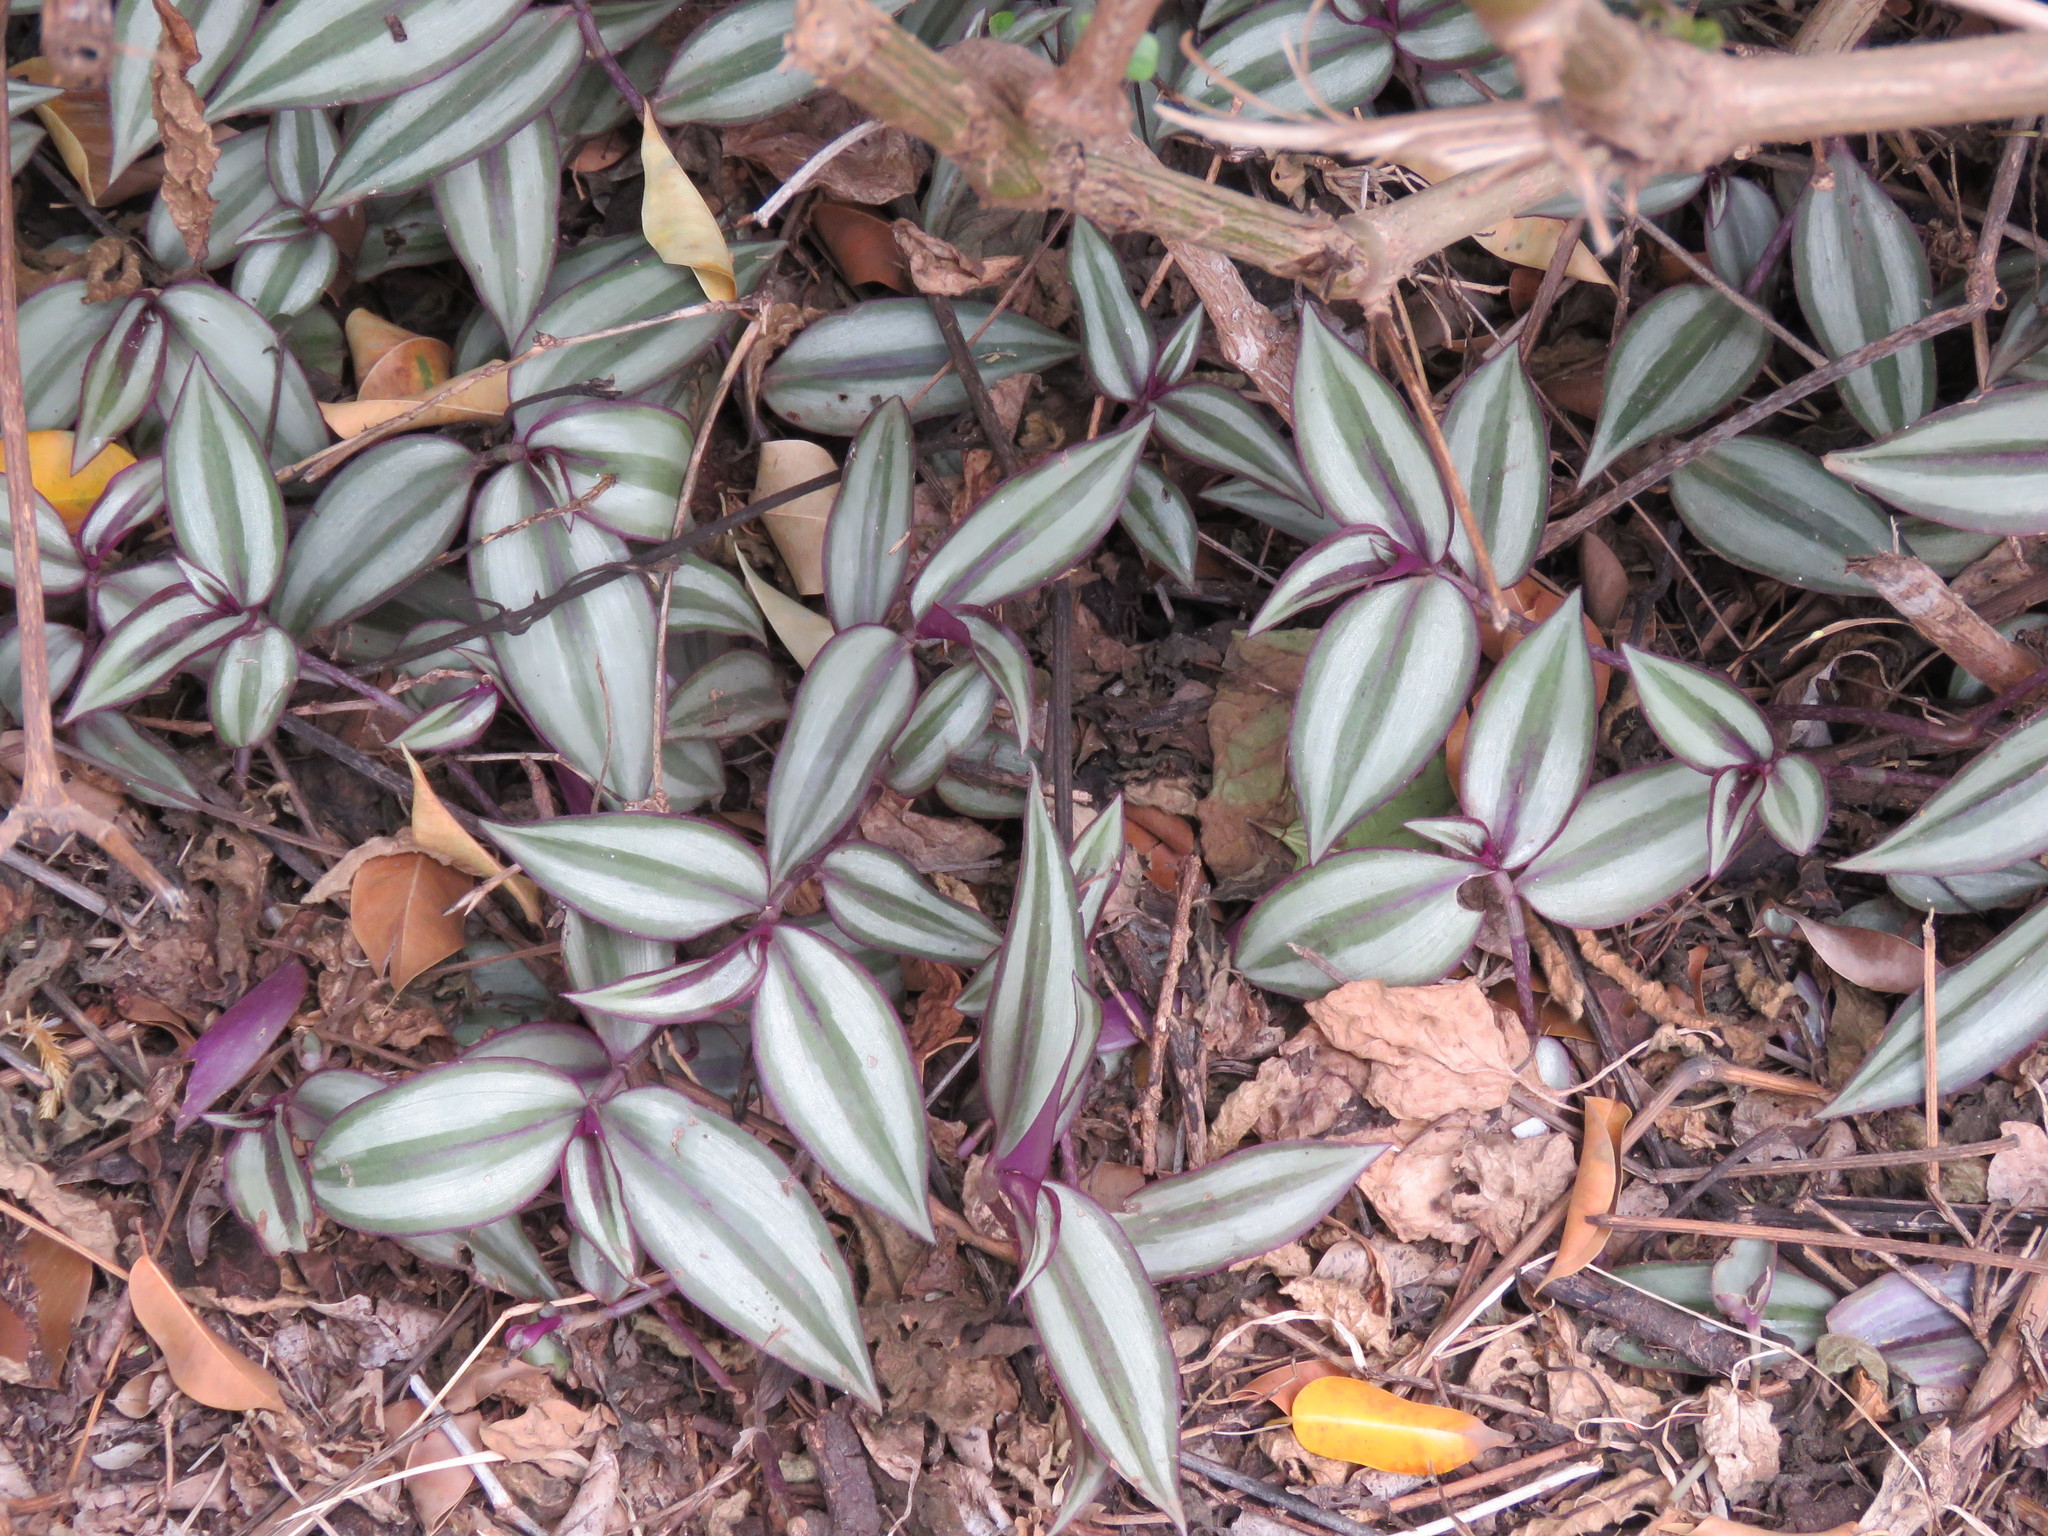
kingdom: Plantae
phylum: Tracheophyta
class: Liliopsida
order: Commelinales
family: Commelinaceae
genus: Tradescantia
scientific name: Tradescantia zebrina
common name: Inchplant
